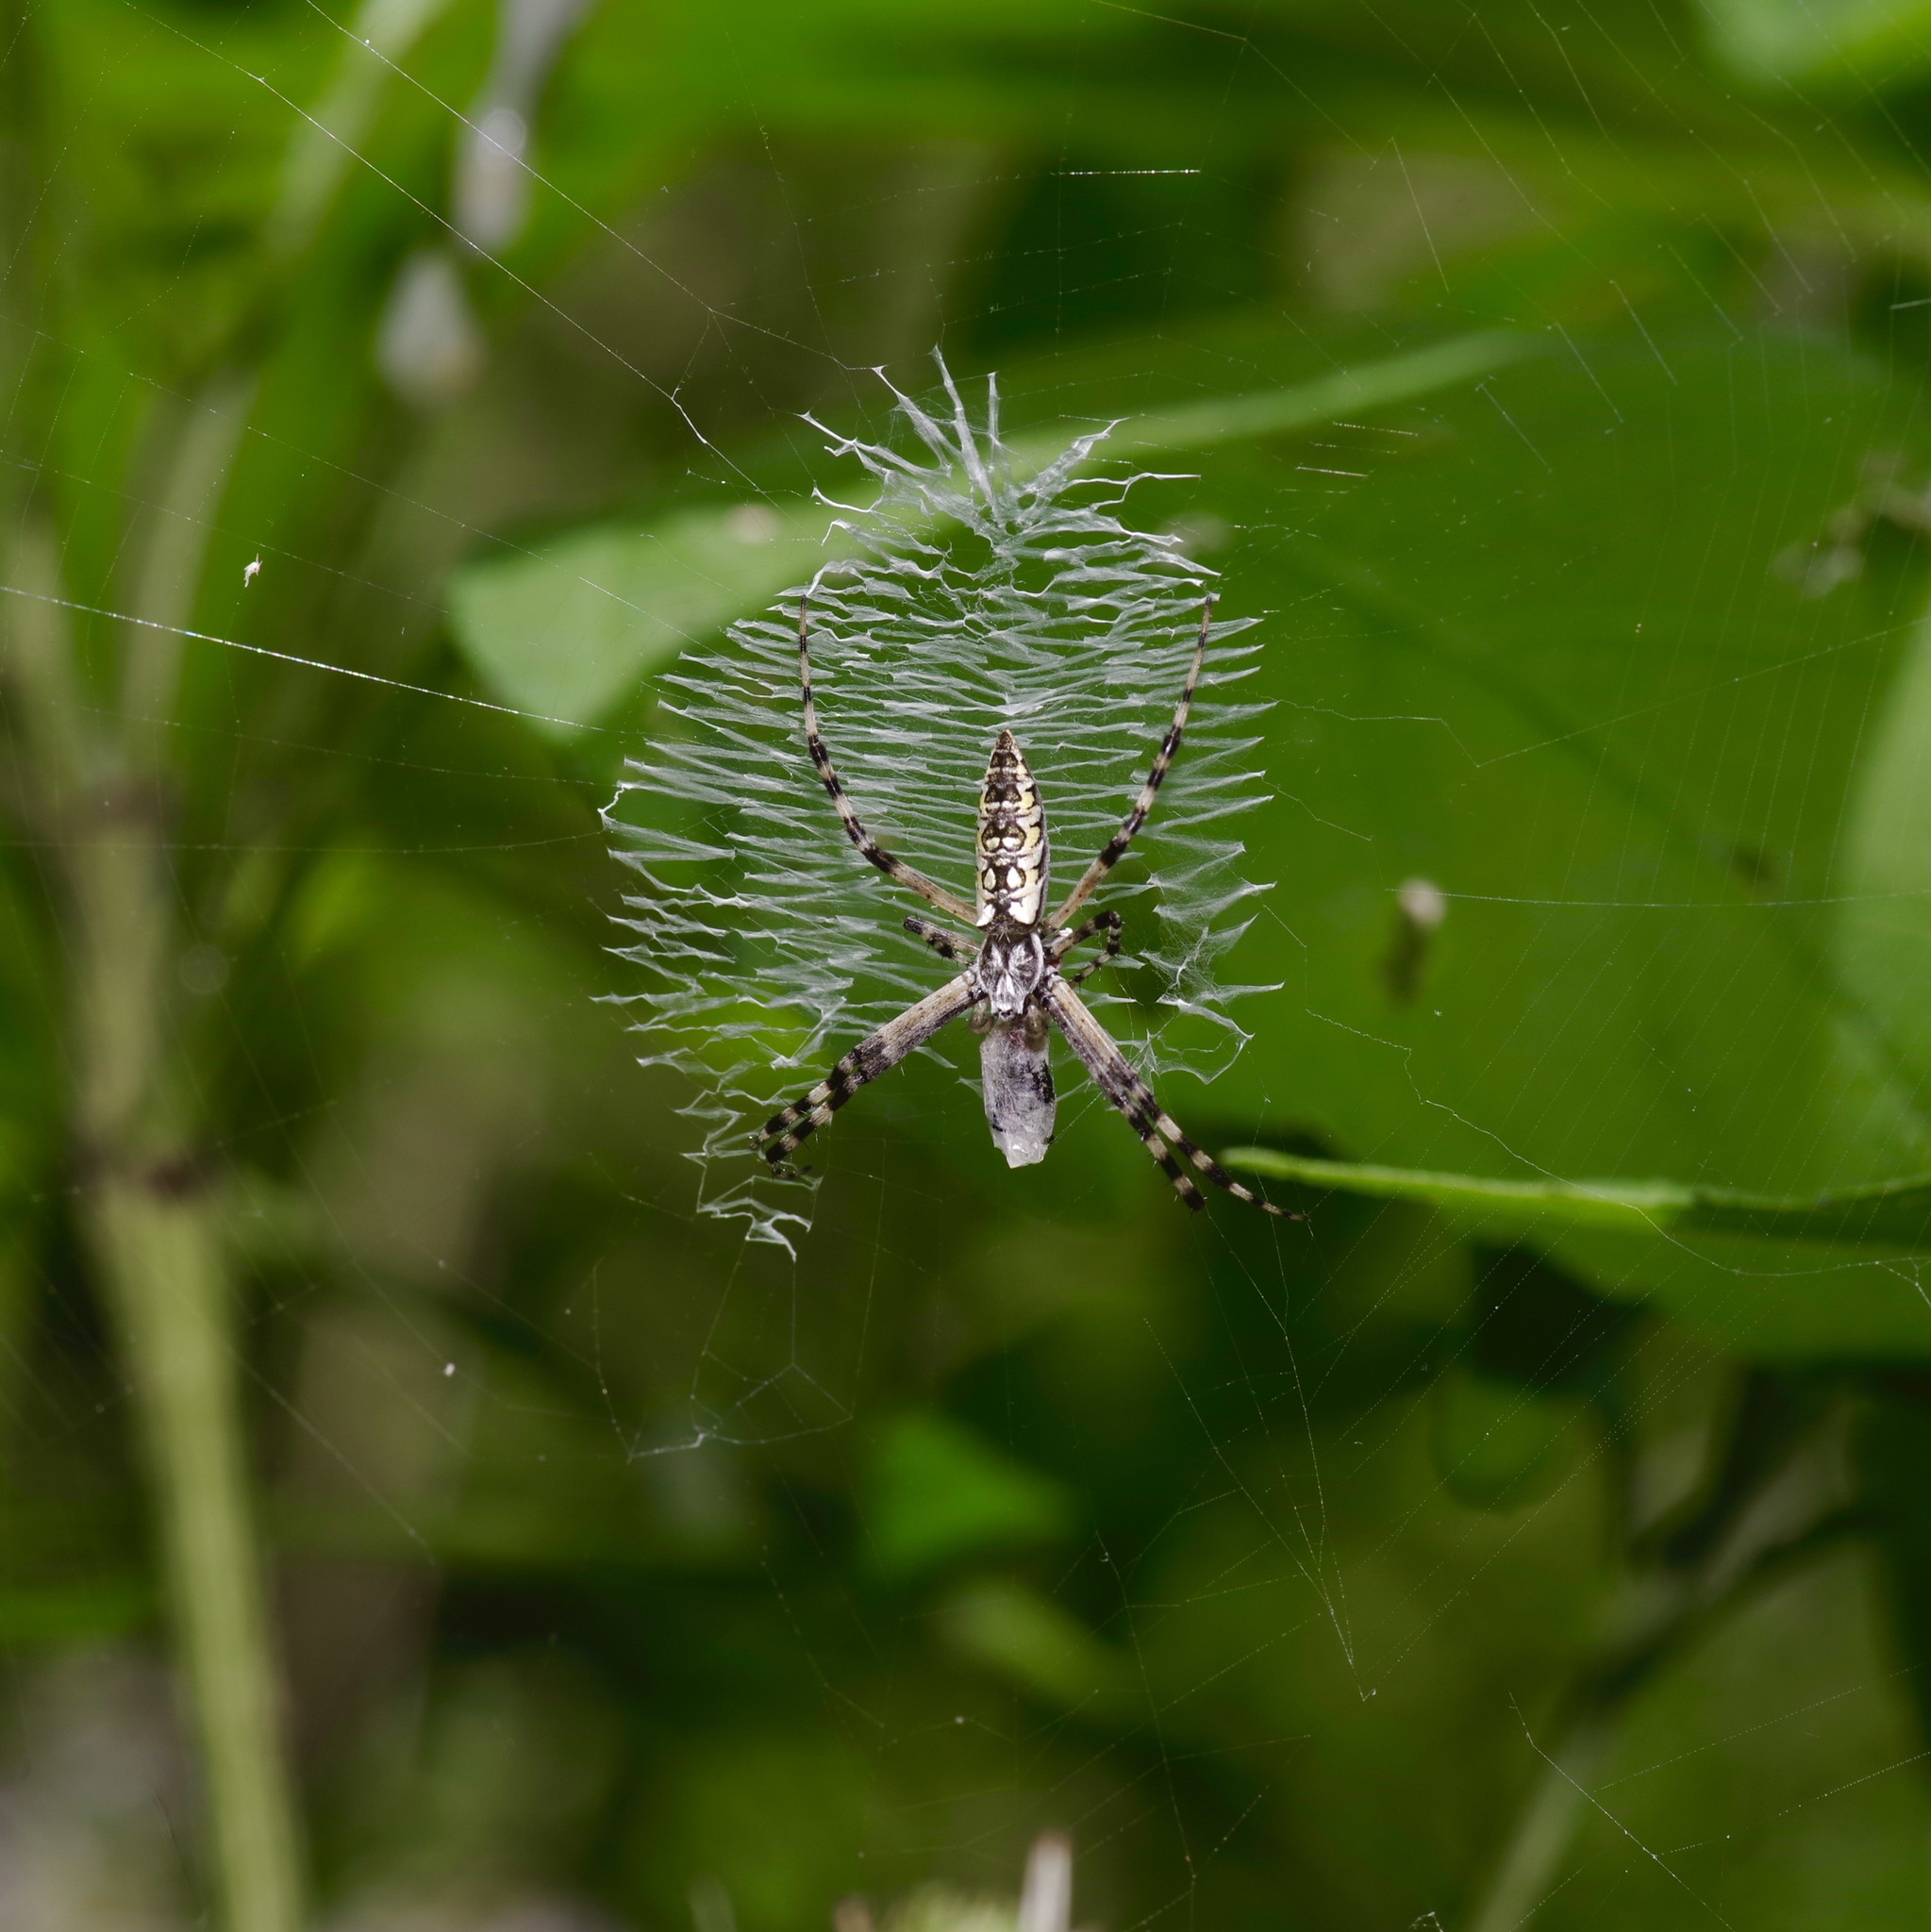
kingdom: Animalia
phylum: Arthropoda
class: Arachnida
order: Araneae
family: Araneidae
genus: Argiope
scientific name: Argiope aurantia
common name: Orb weavers
